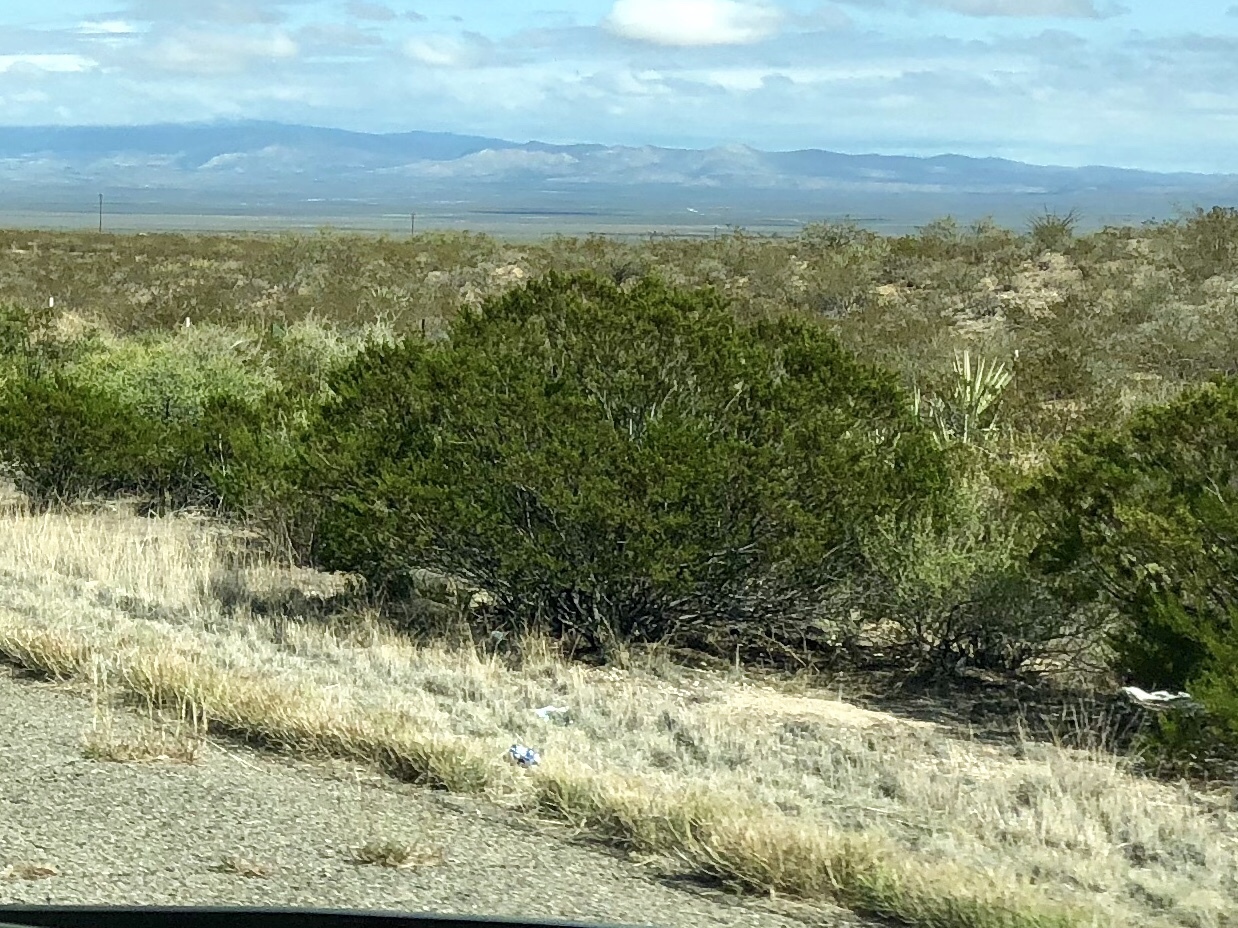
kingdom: Plantae
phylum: Tracheophyta
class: Magnoliopsida
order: Zygophyllales
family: Zygophyllaceae
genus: Larrea
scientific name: Larrea tridentata
